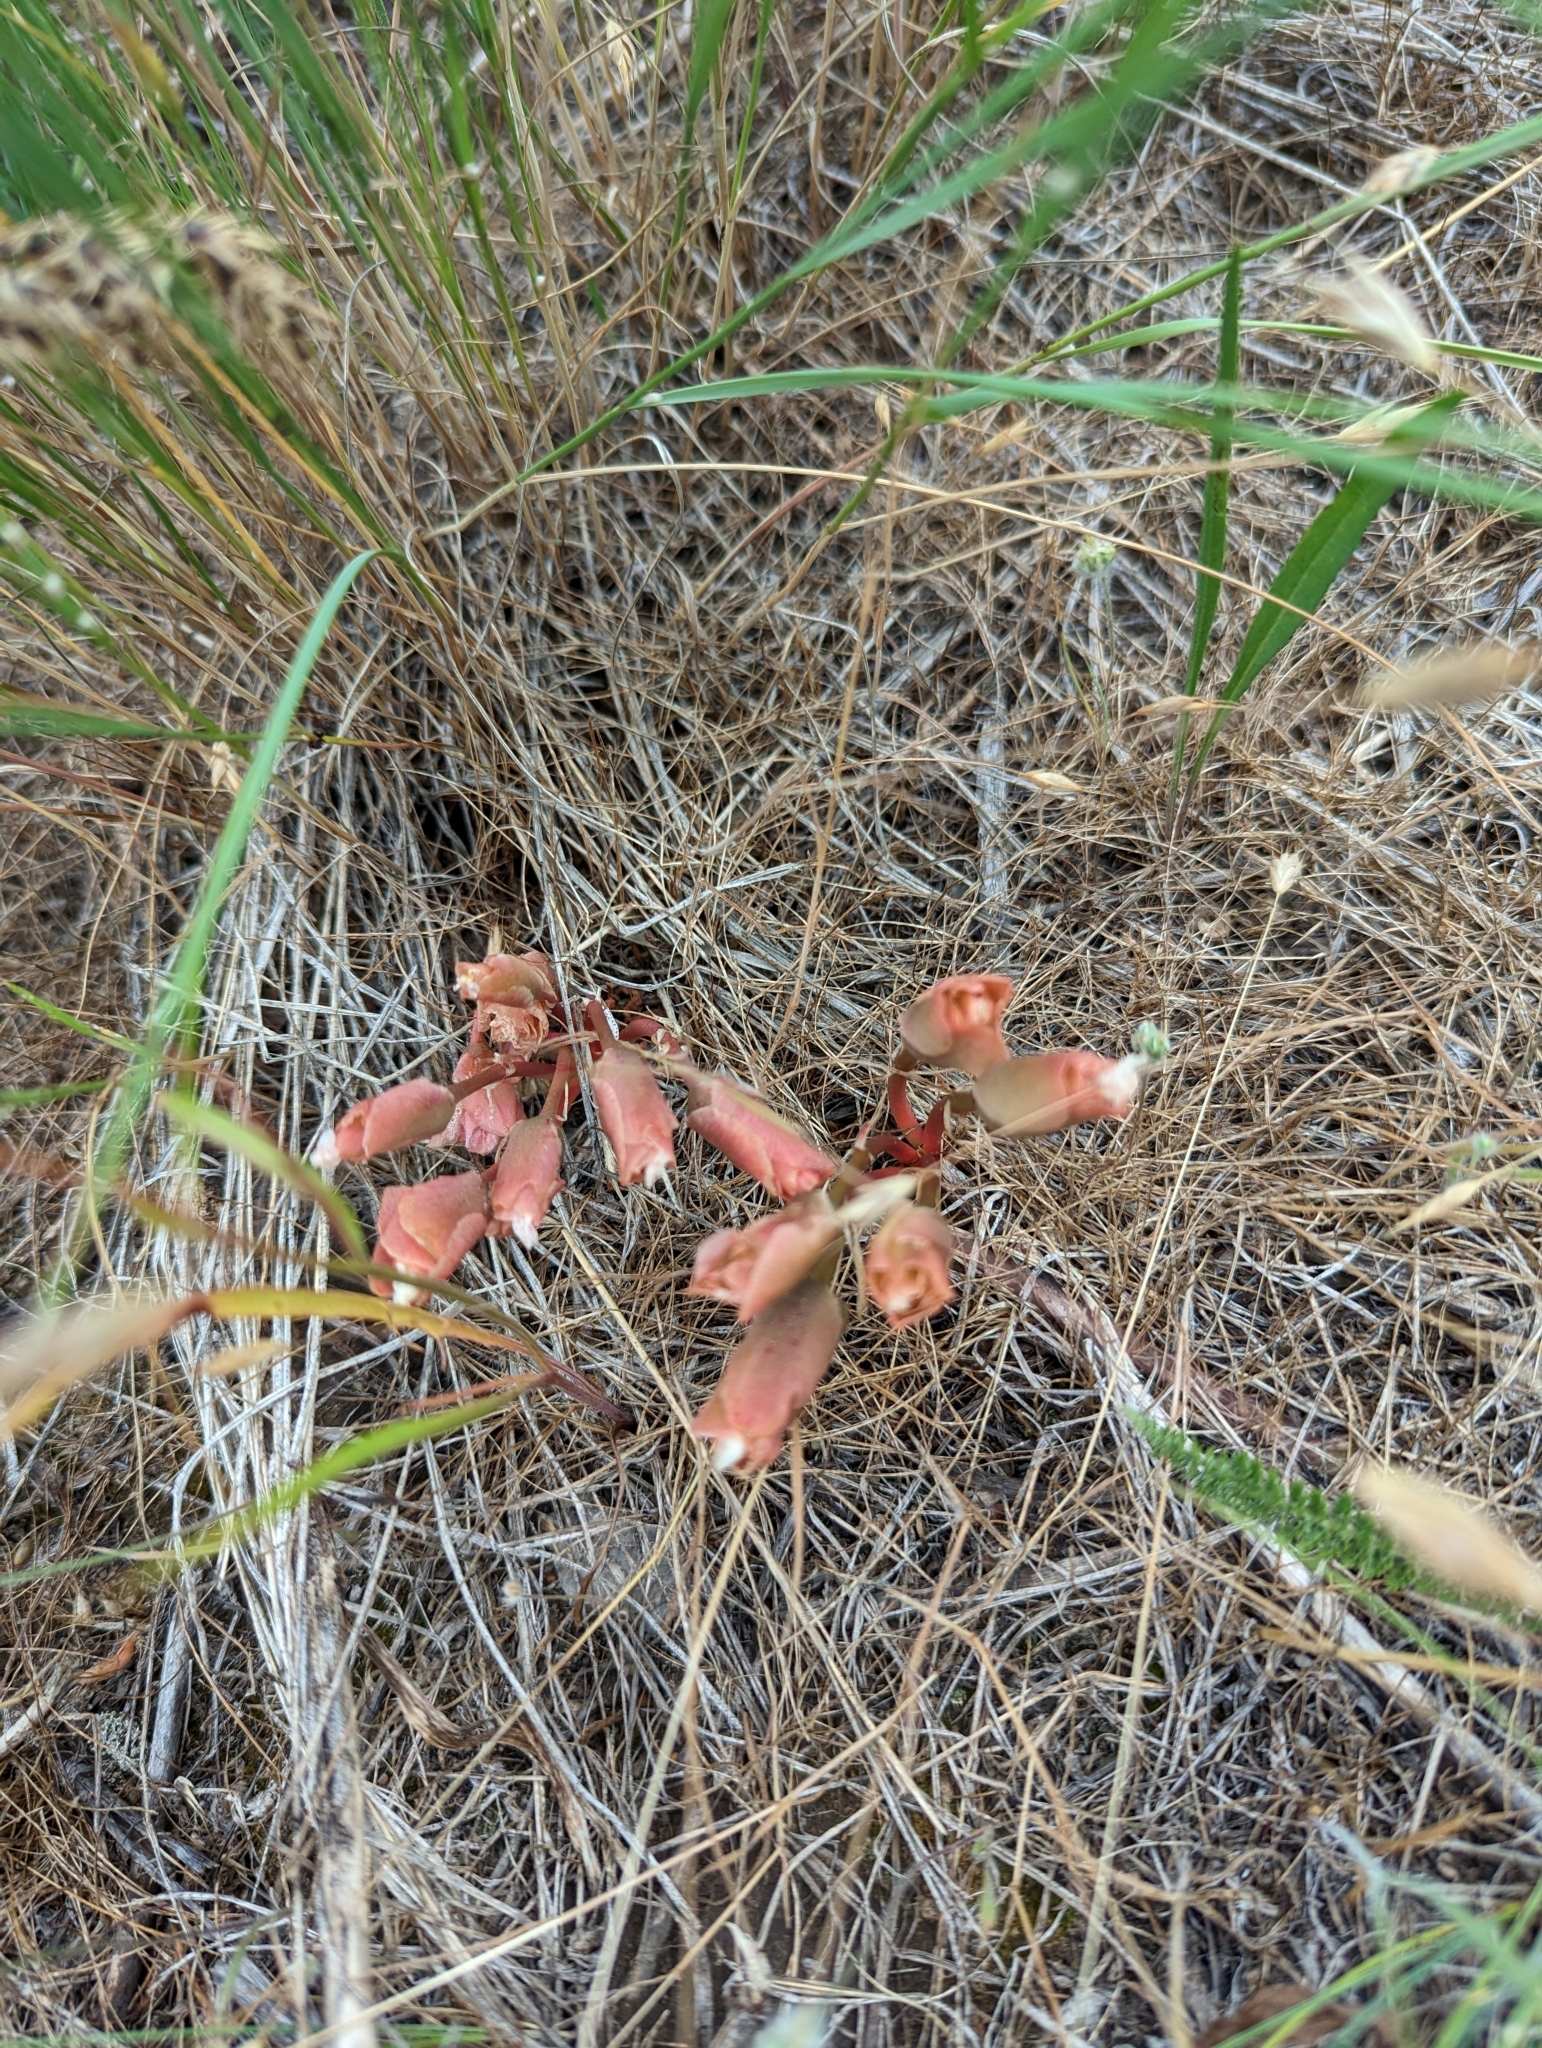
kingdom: Plantae
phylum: Tracheophyta
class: Magnoliopsida
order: Caryophyllales
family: Montiaceae
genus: Lewisia
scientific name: Lewisia rediviva
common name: Bitter-root
